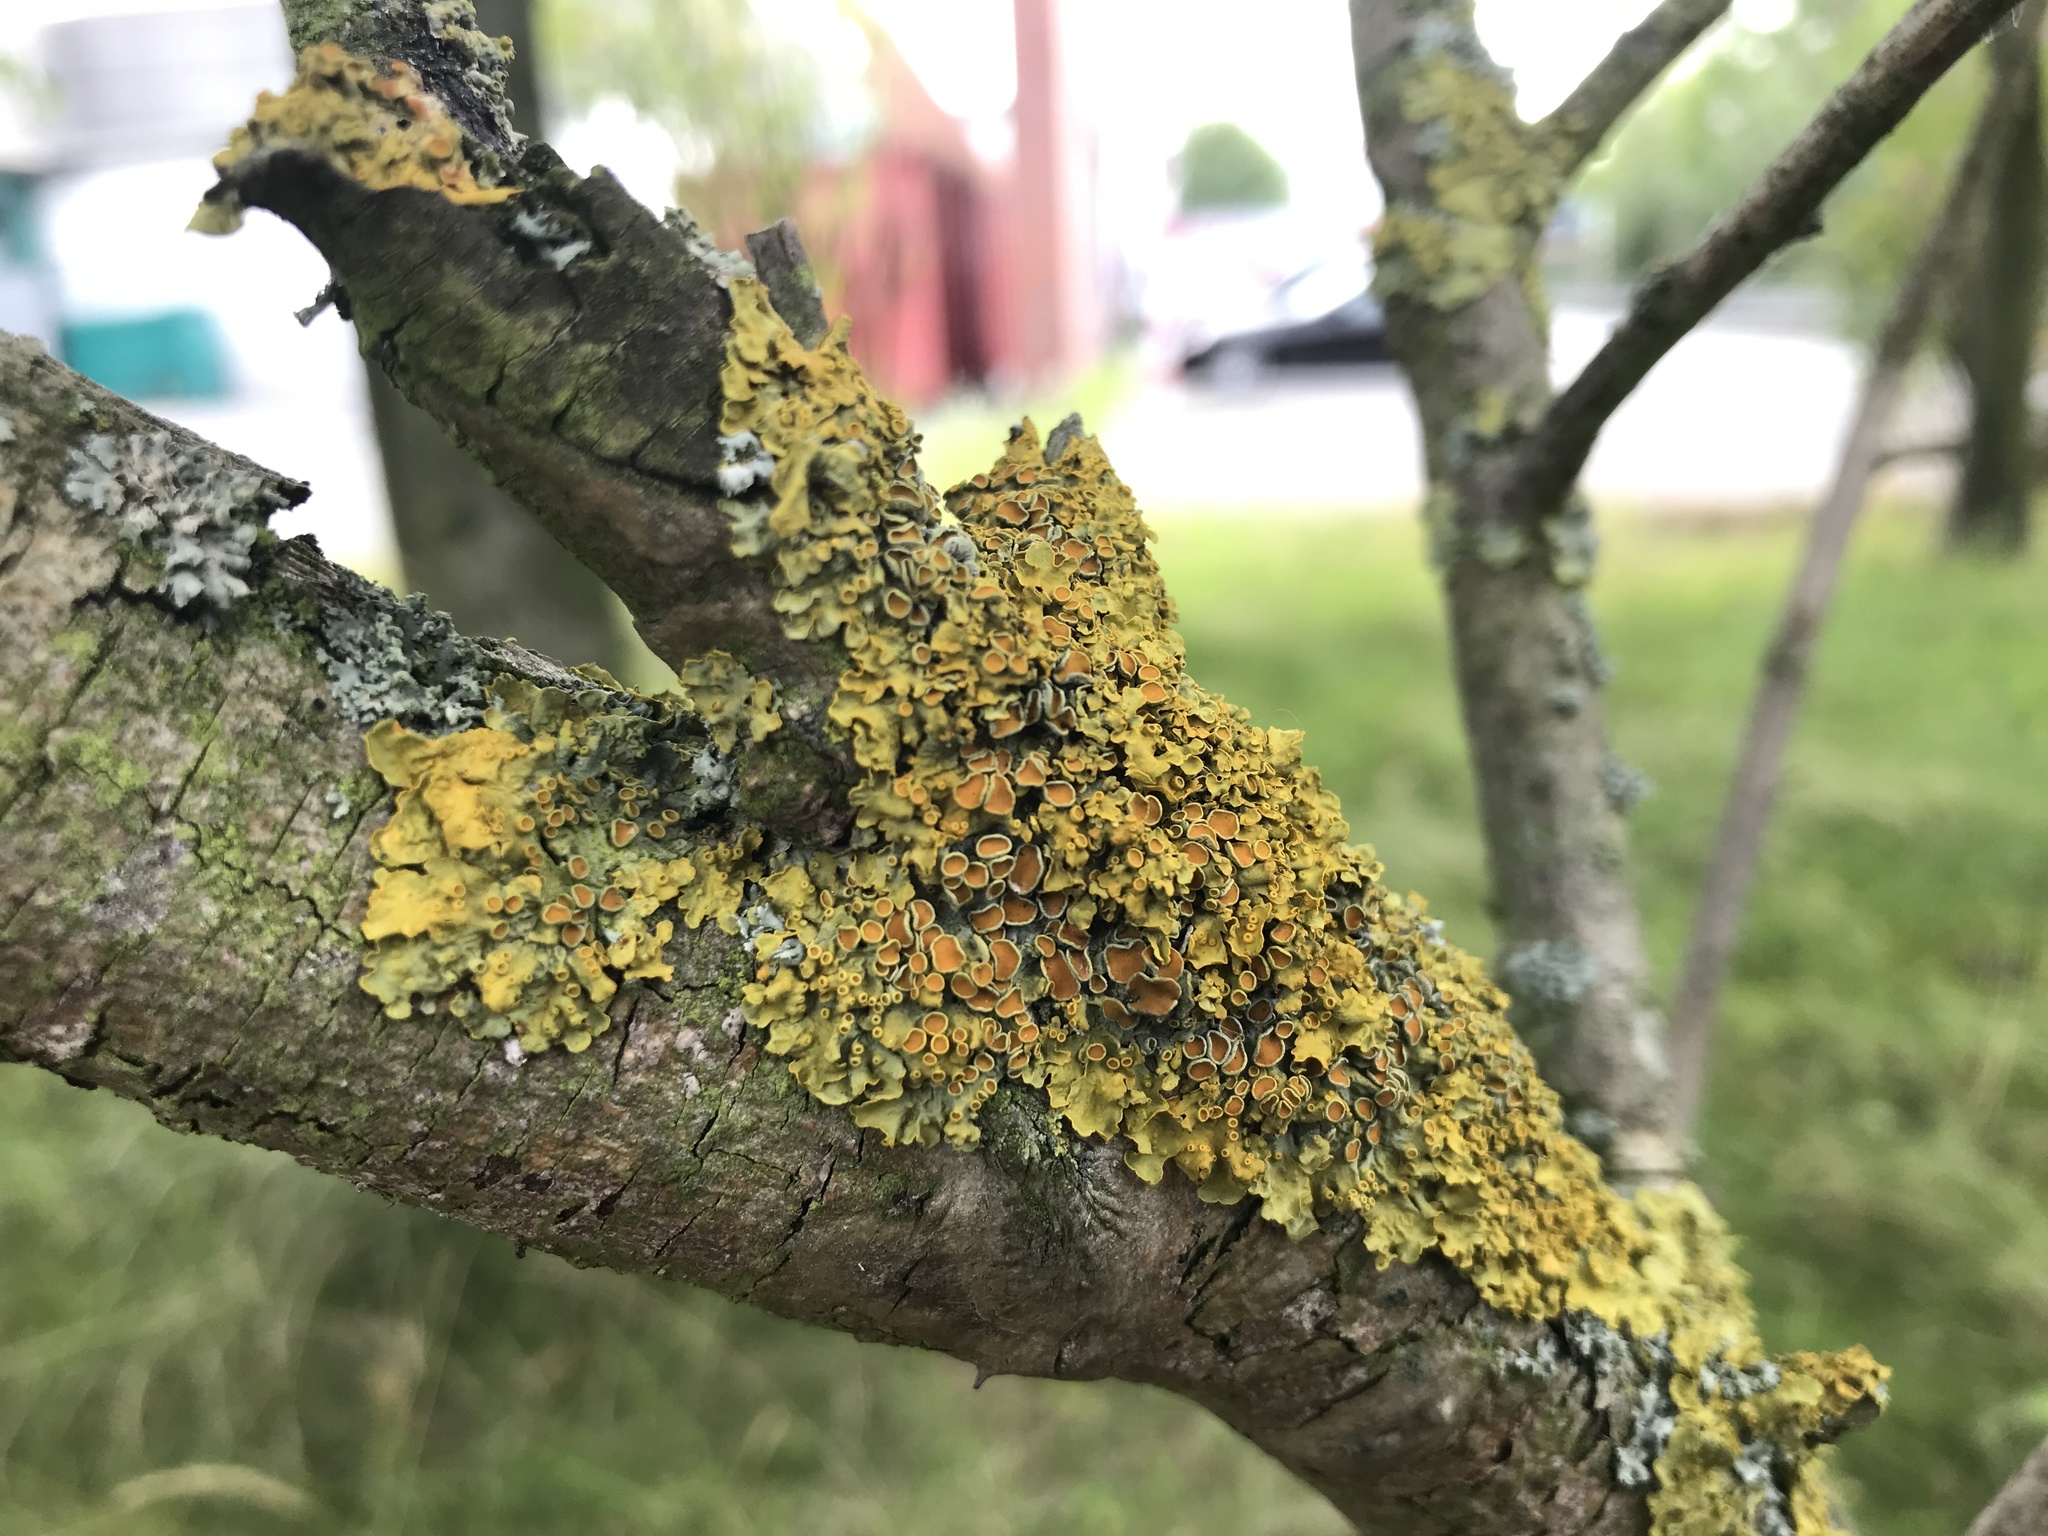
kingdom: Fungi
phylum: Ascomycota
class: Lecanoromycetes
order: Teloschistales
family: Teloschistaceae
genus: Xanthoria
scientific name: Xanthoria parietina
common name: Common orange lichen
